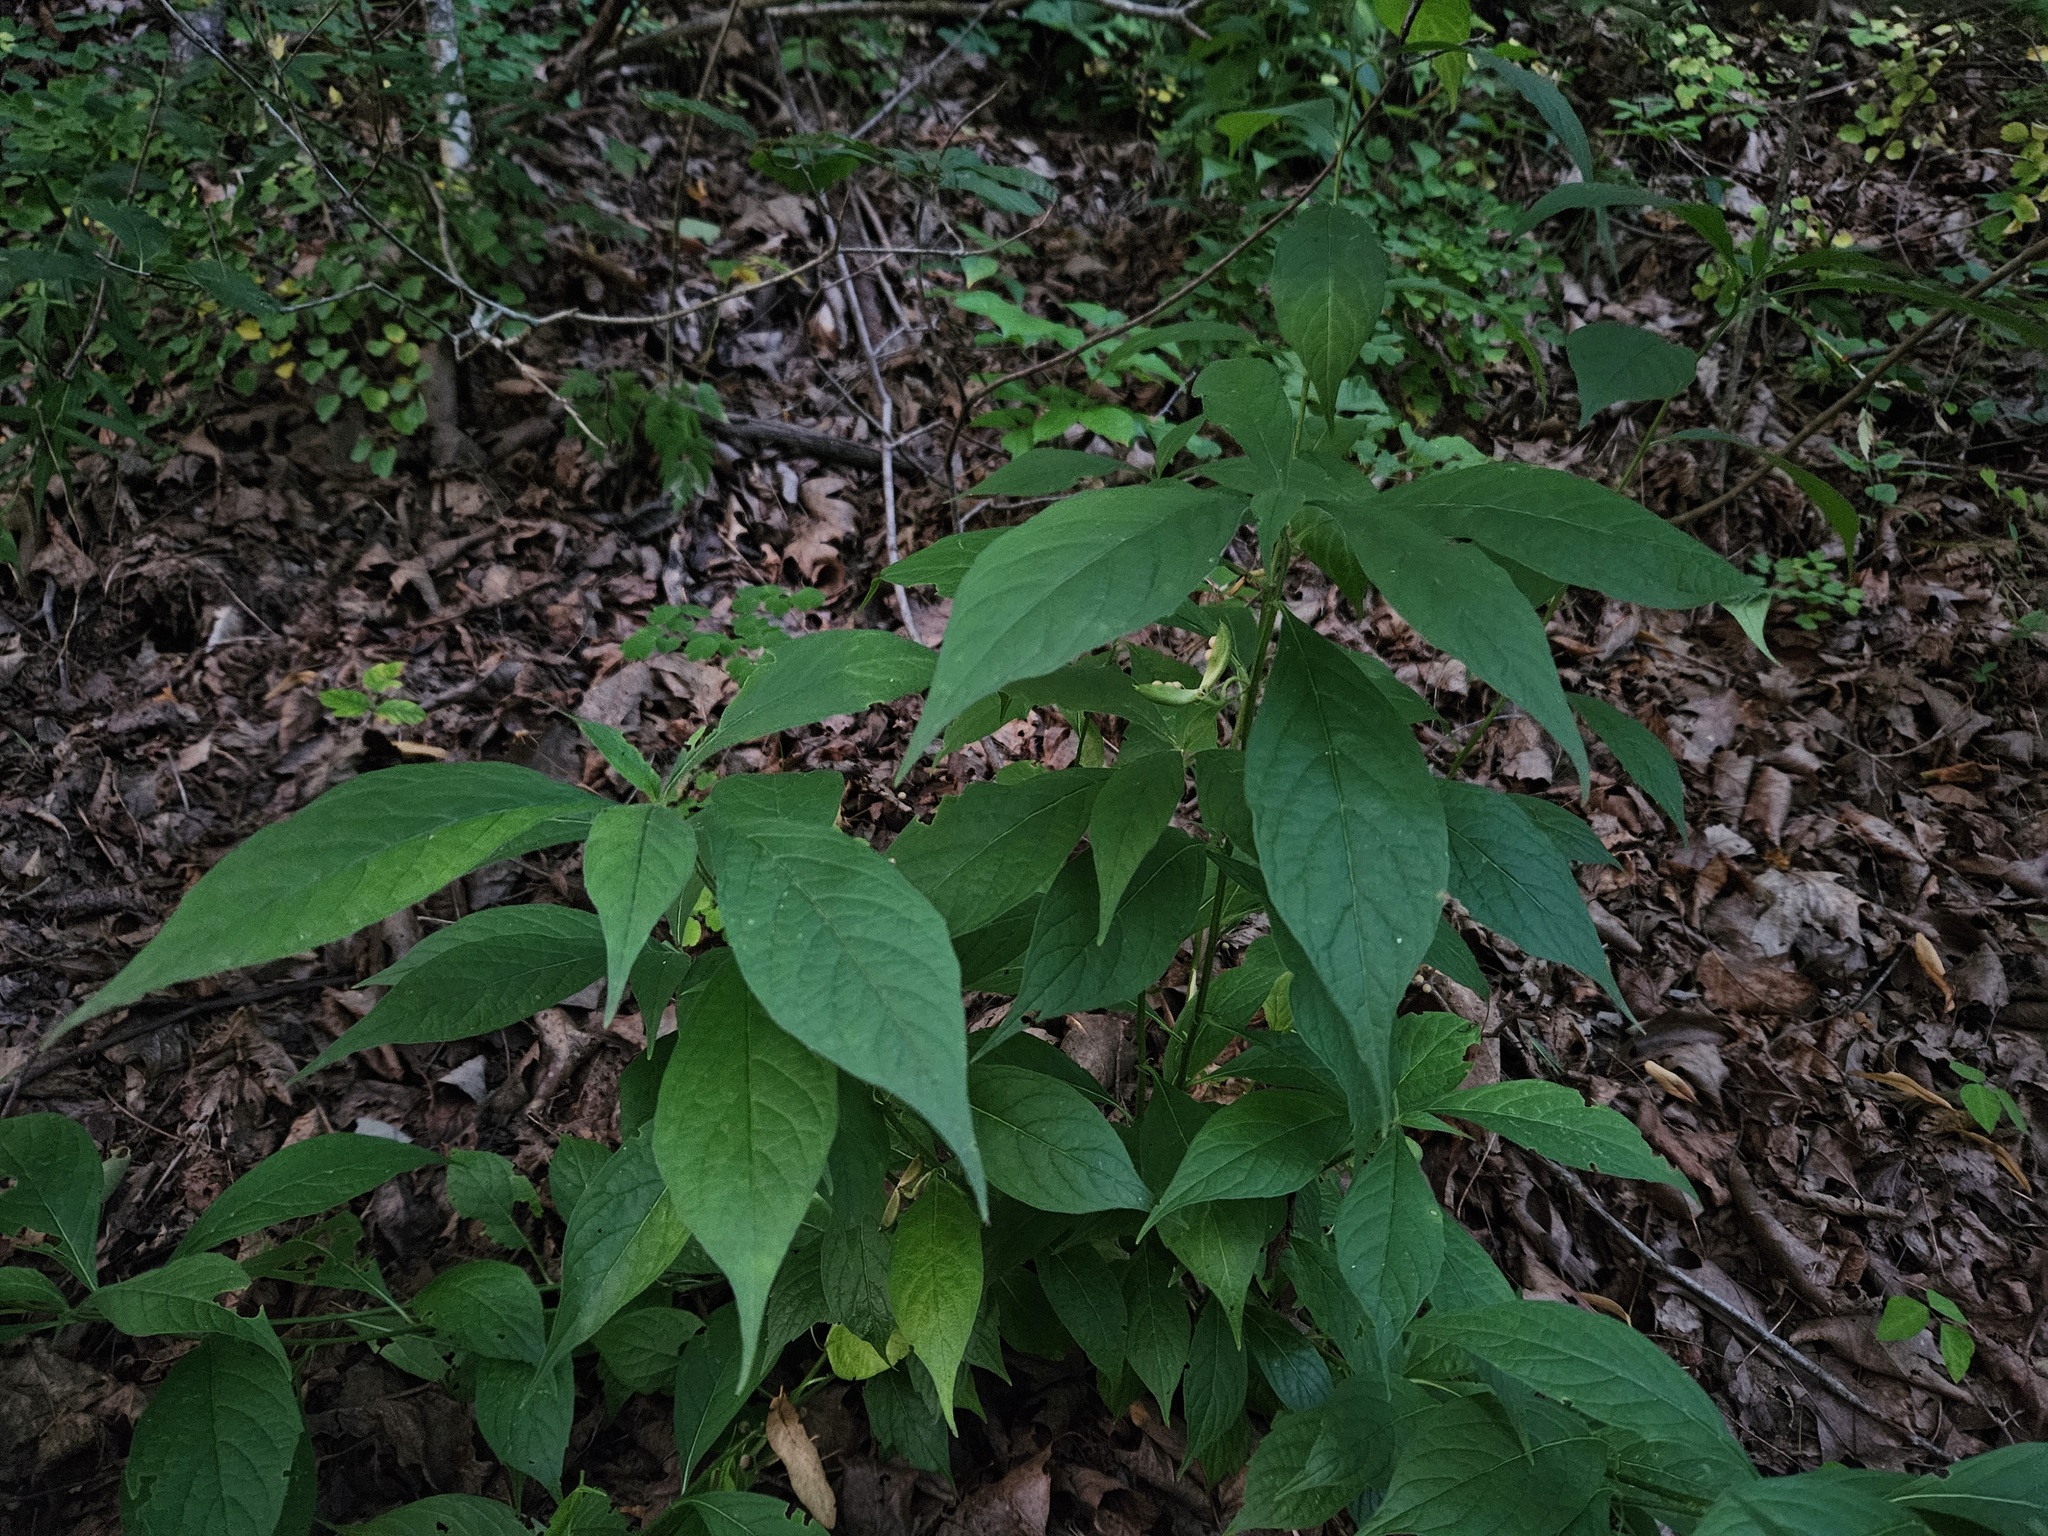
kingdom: Plantae
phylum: Tracheophyta
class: Magnoliopsida
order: Malpighiales
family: Violaceae
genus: Cubelium
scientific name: Cubelium concolor
